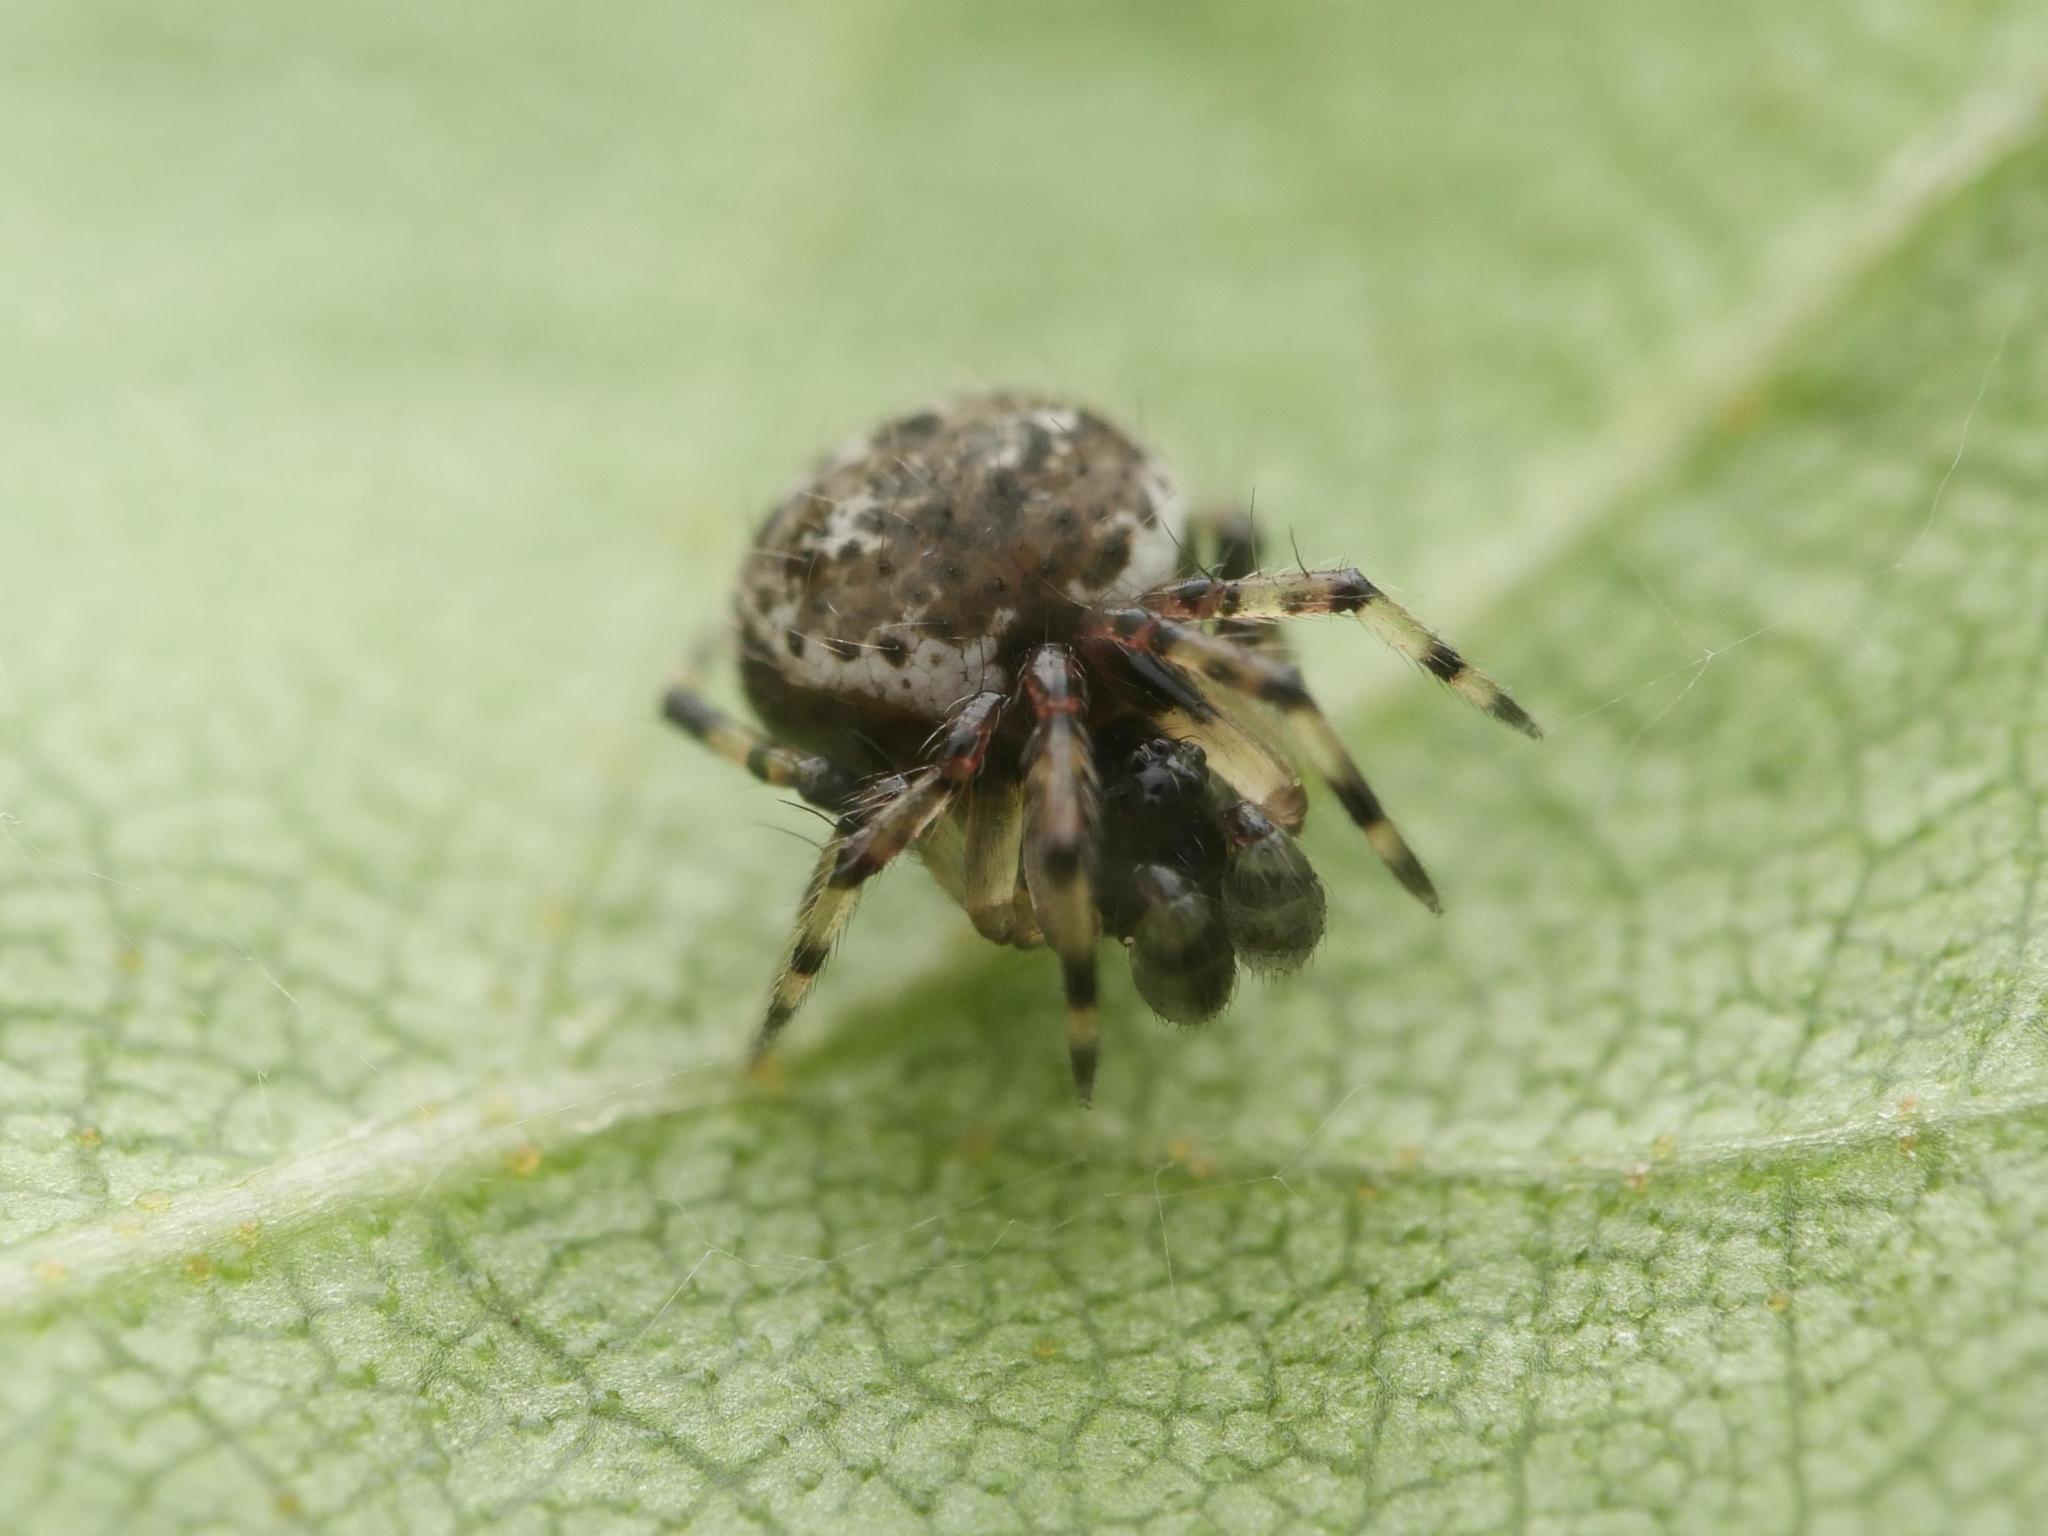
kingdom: Animalia
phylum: Arthropoda
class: Arachnida
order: Araneae
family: Theridiidae
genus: Dipoena
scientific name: Dipoena melanogaster
